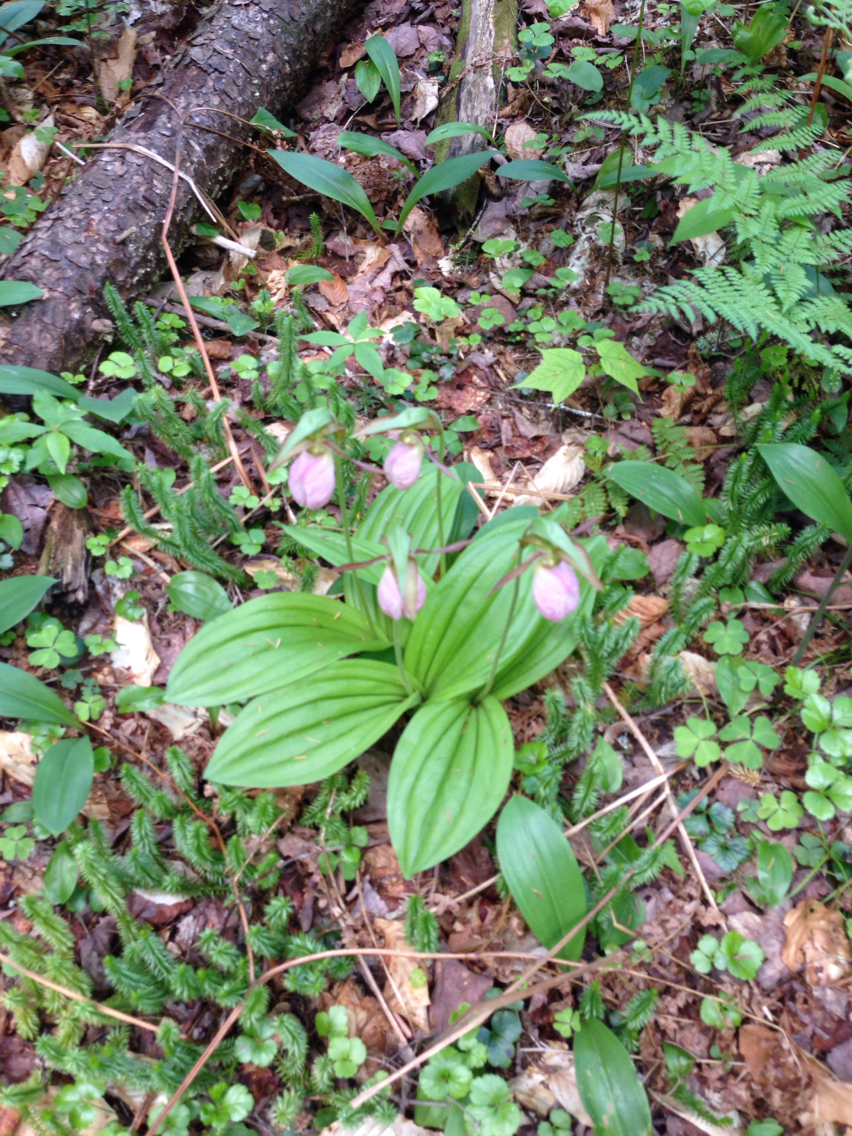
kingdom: Plantae
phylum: Tracheophyta
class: Liliopsida
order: Asparagales
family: Orchidaceae
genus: Cypripedium
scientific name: Cypripedium acaule
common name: Pink lady's-slipper
